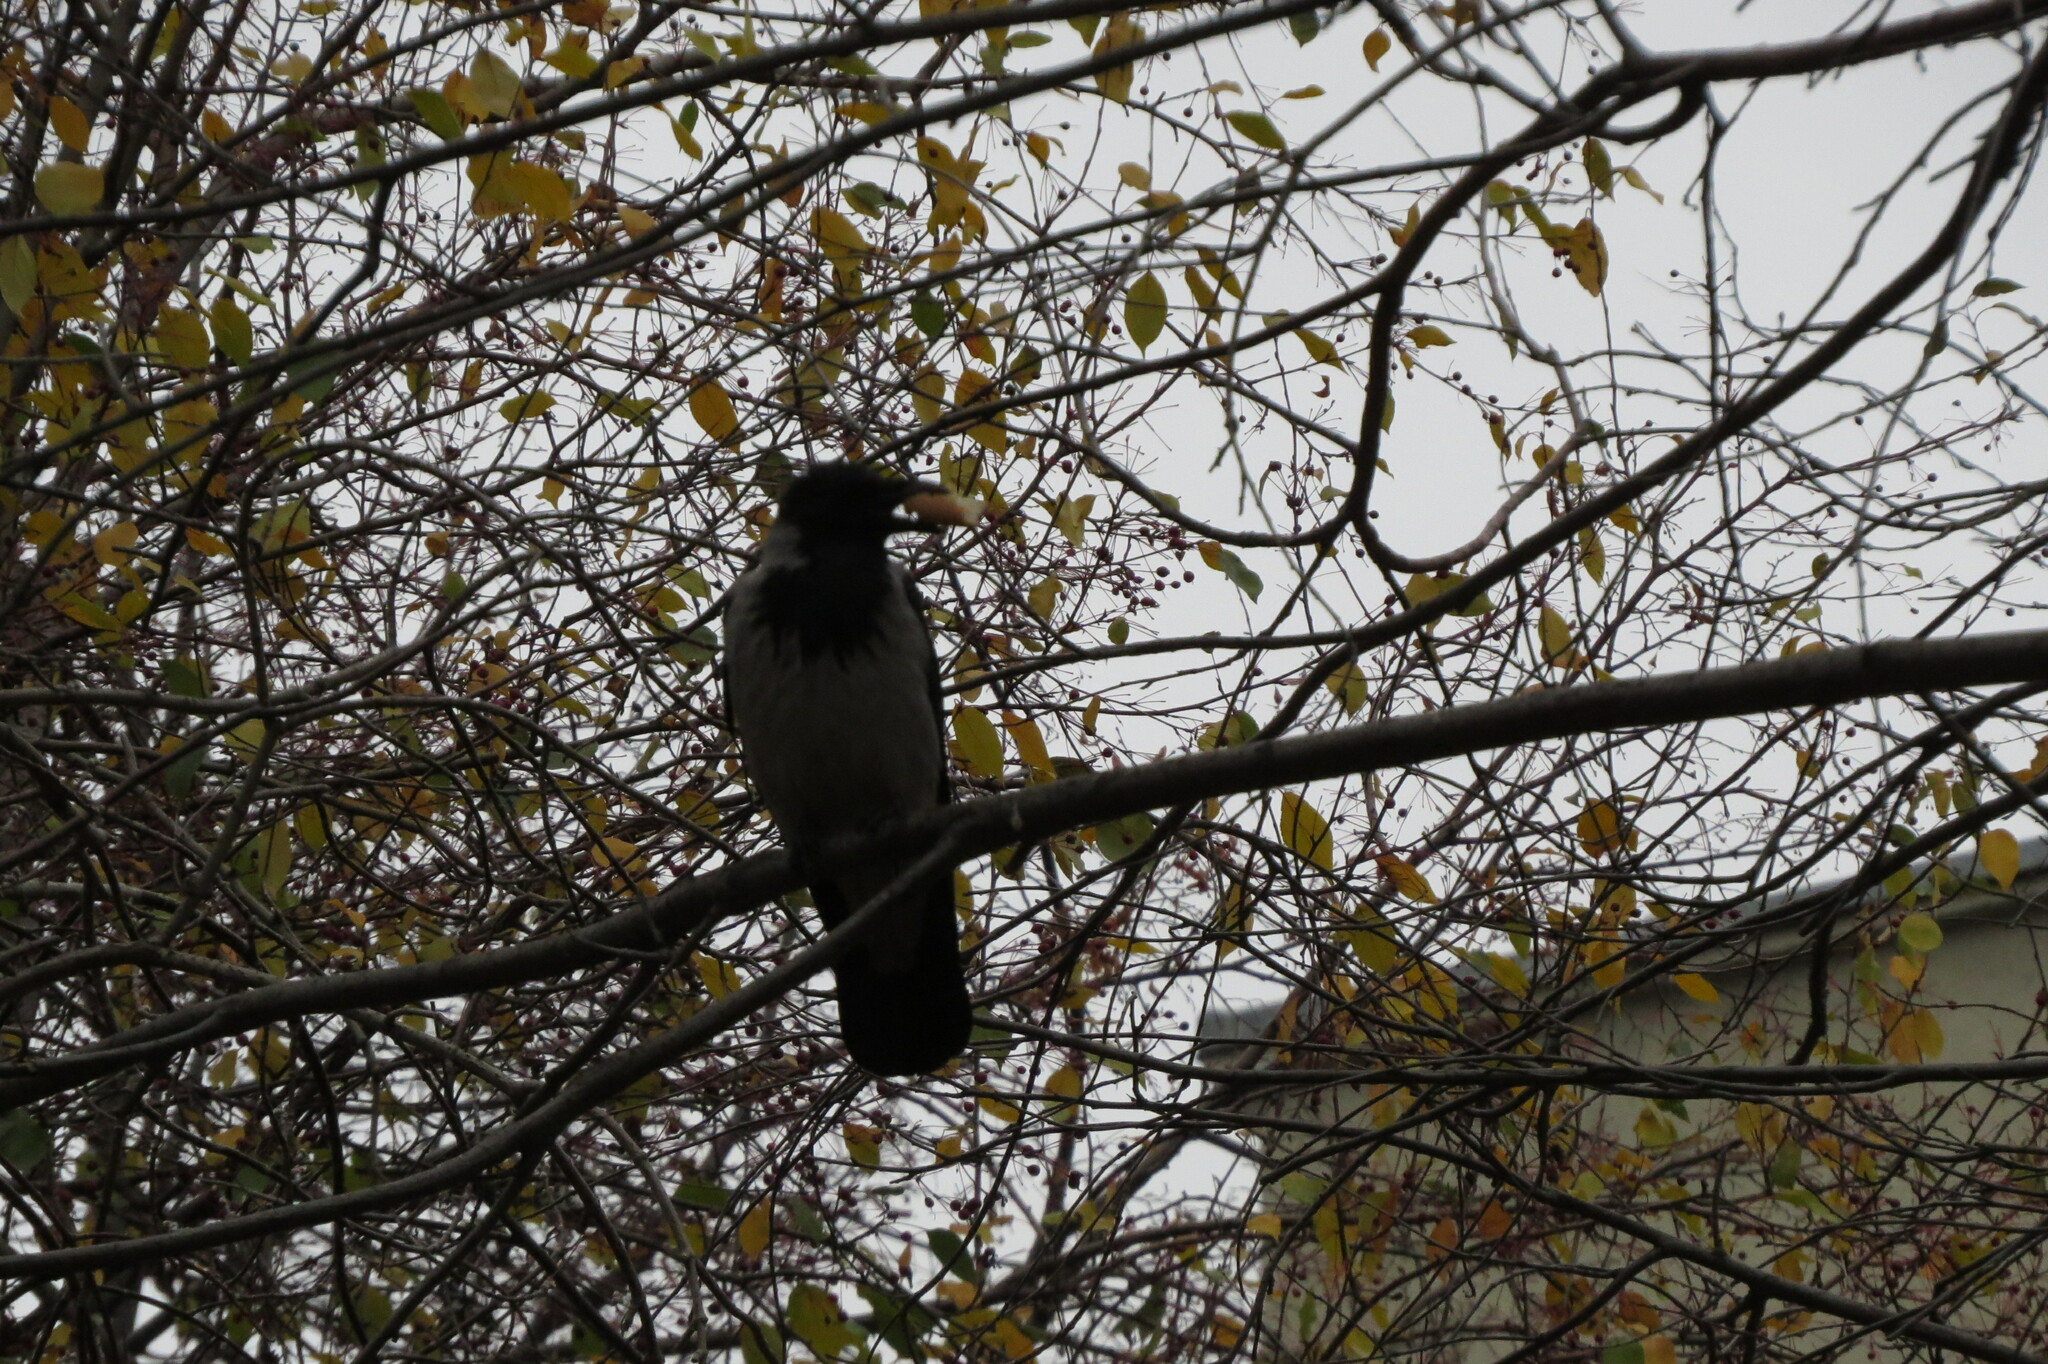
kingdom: Animalia
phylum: Chordata
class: Aves
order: Passeriformes
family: Corvidae
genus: Corvus
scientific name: Corvus cornix
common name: Hooded crow
